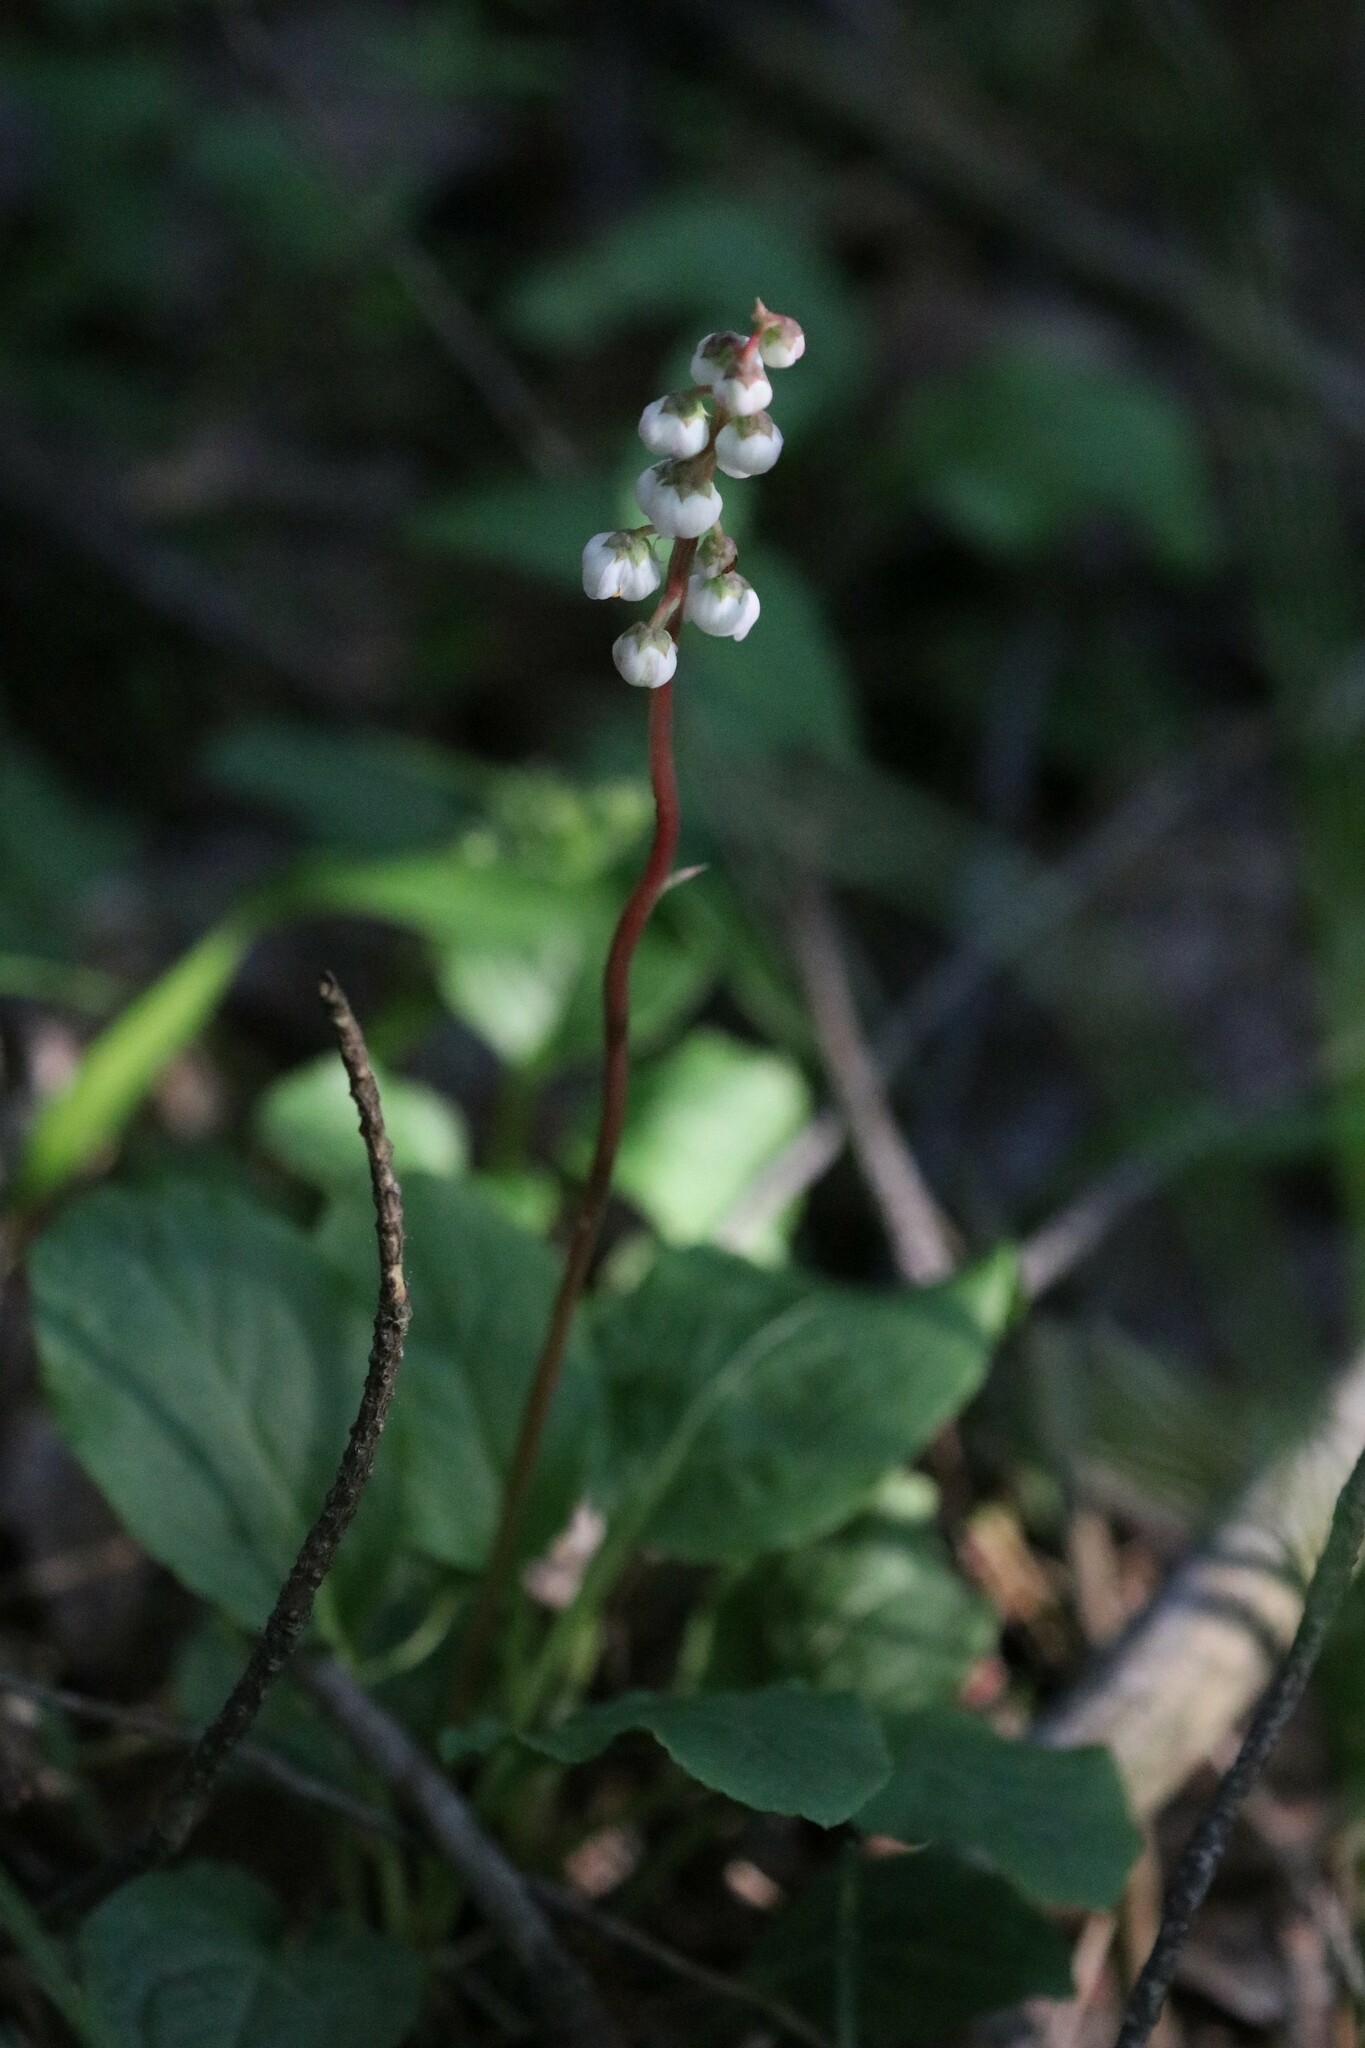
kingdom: Plantae
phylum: Tracheophyta
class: Magnoliopsida
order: Ericales
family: Ericaceae
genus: Pyrola
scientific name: Pyrola minor
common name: Common wintergreen
